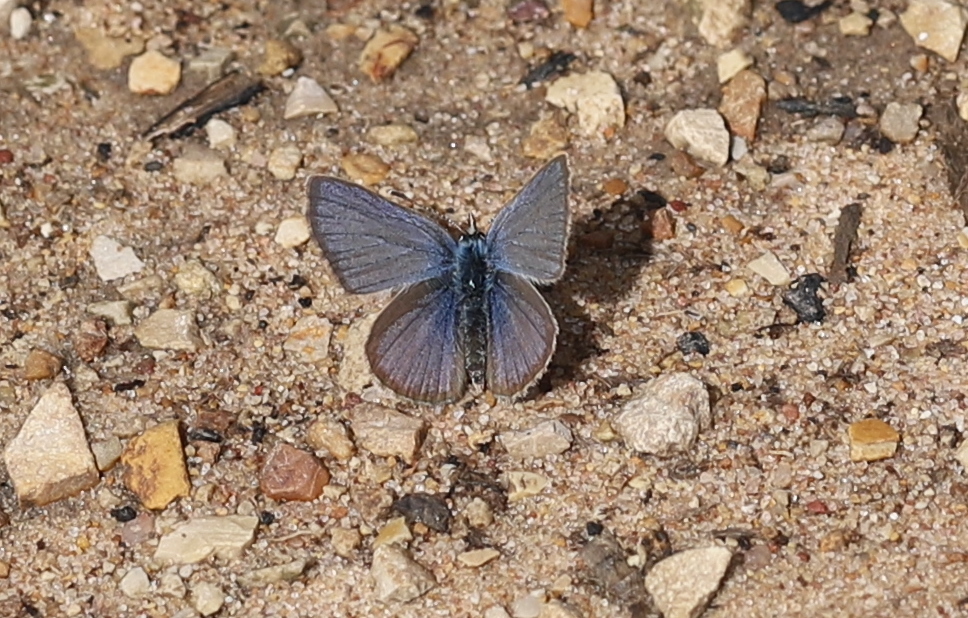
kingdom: Animalia
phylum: Arthropoda
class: Insecta
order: Lepidoptera
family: Lycaenidae
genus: Hemiargus
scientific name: Hemiargus hanno
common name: Common blue
